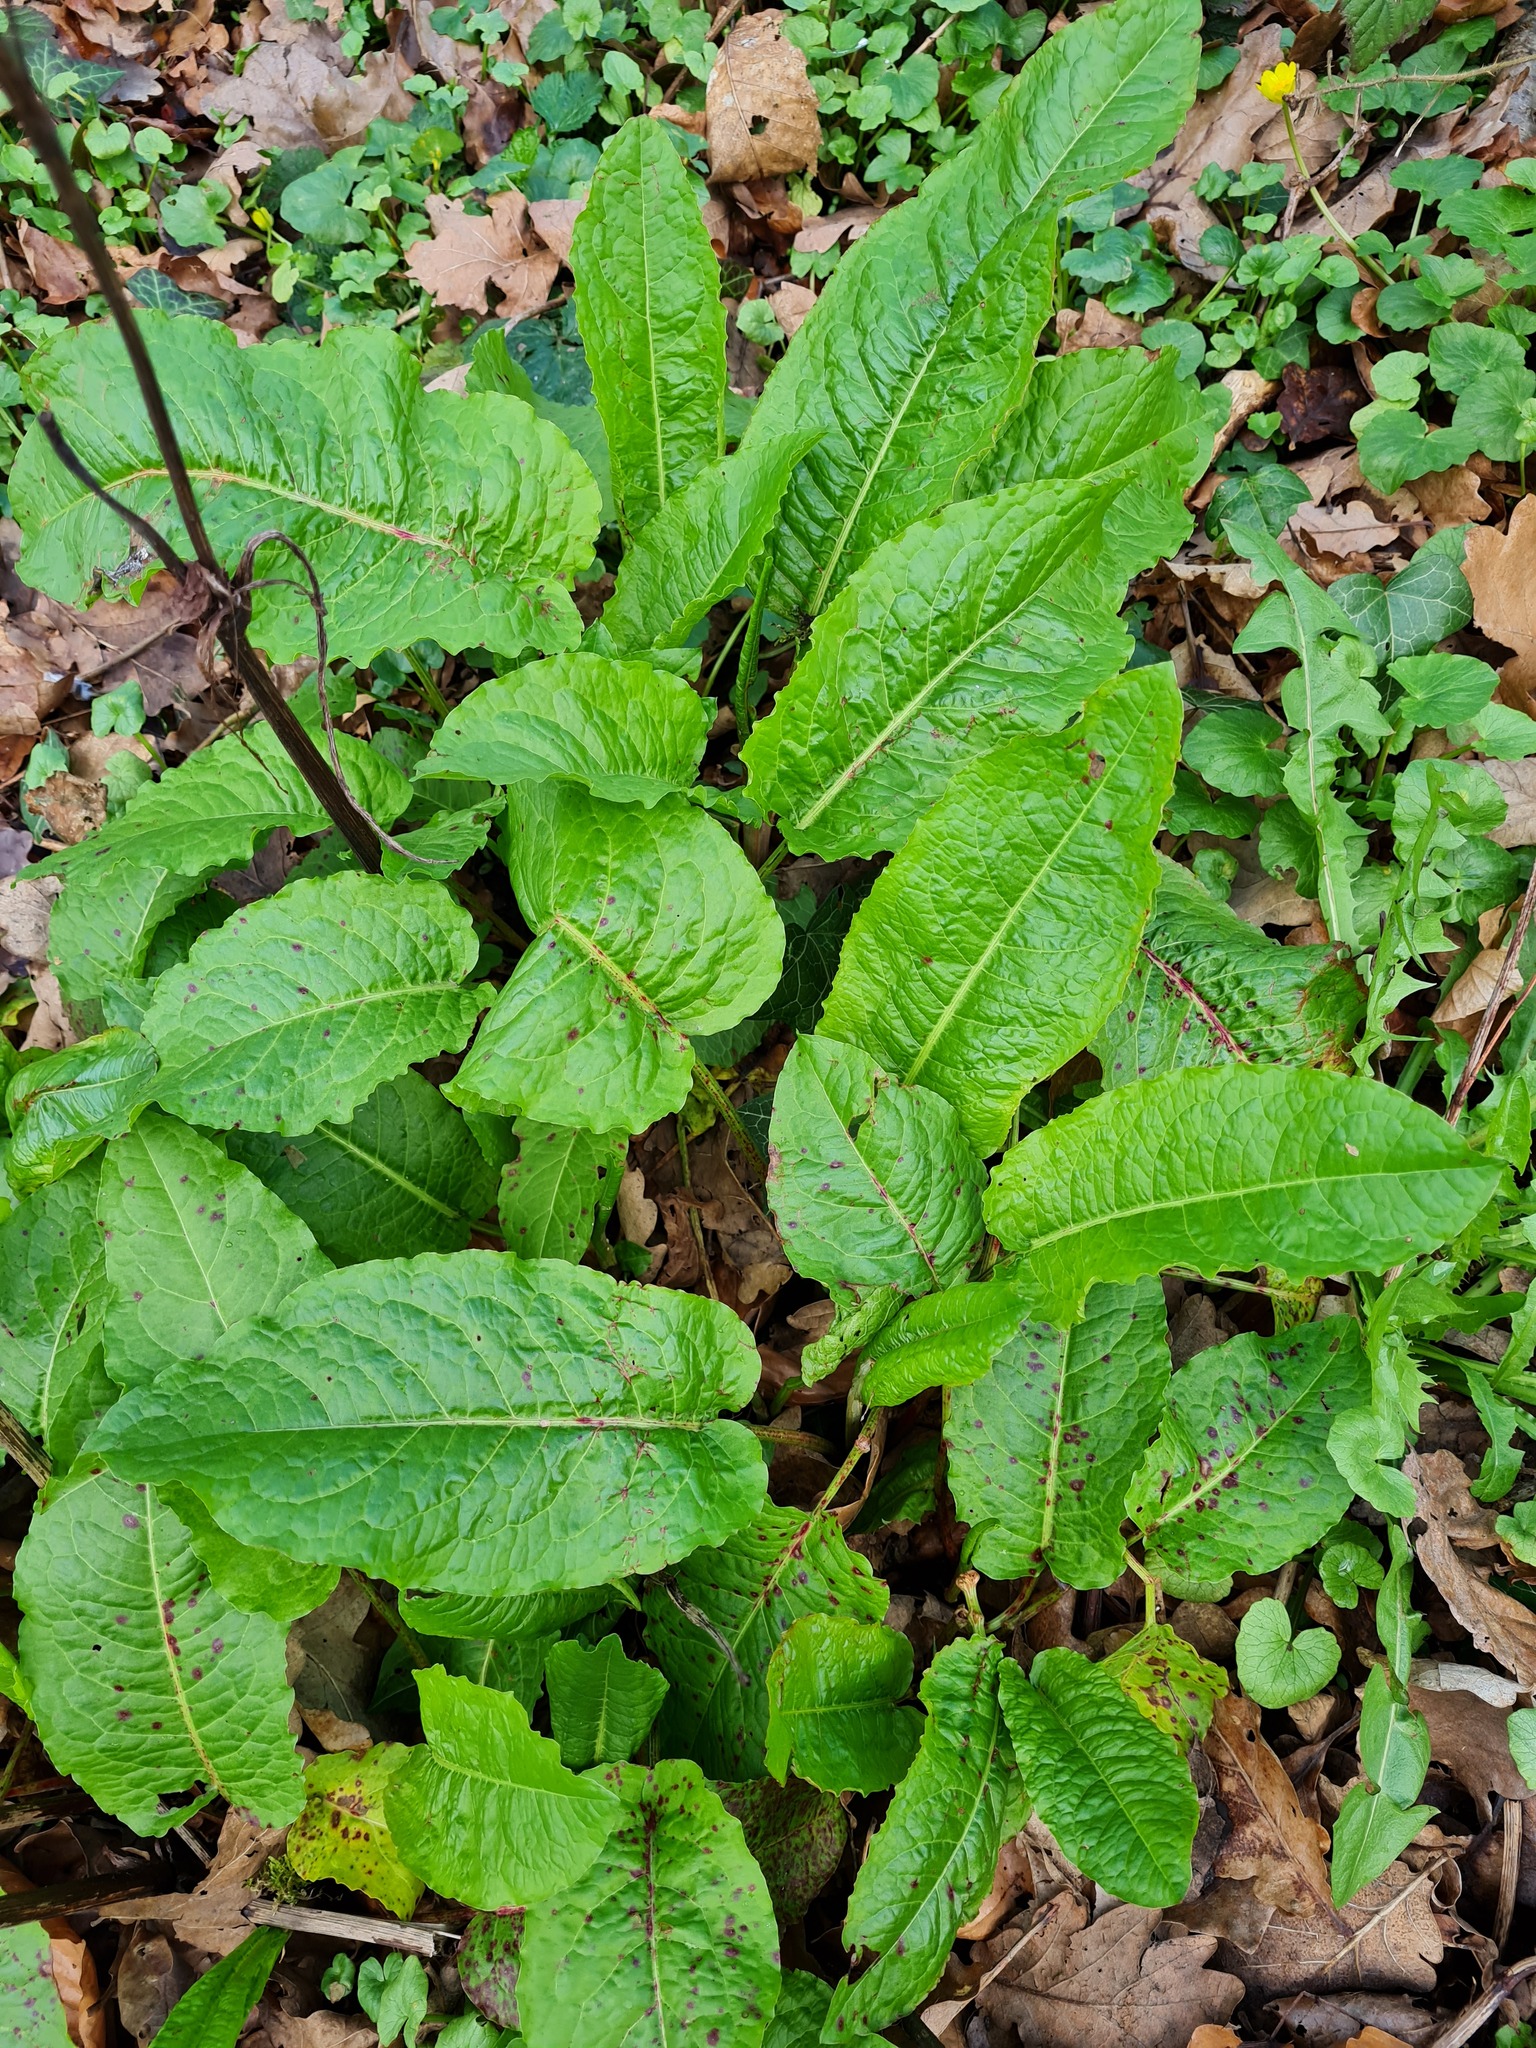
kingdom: Plantae
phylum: Tracheophyta
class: Magnoliopsida
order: Caryophyllales
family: Polygonaceae
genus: Rumex
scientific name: Rumex obtusifolius
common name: Bitter dock
